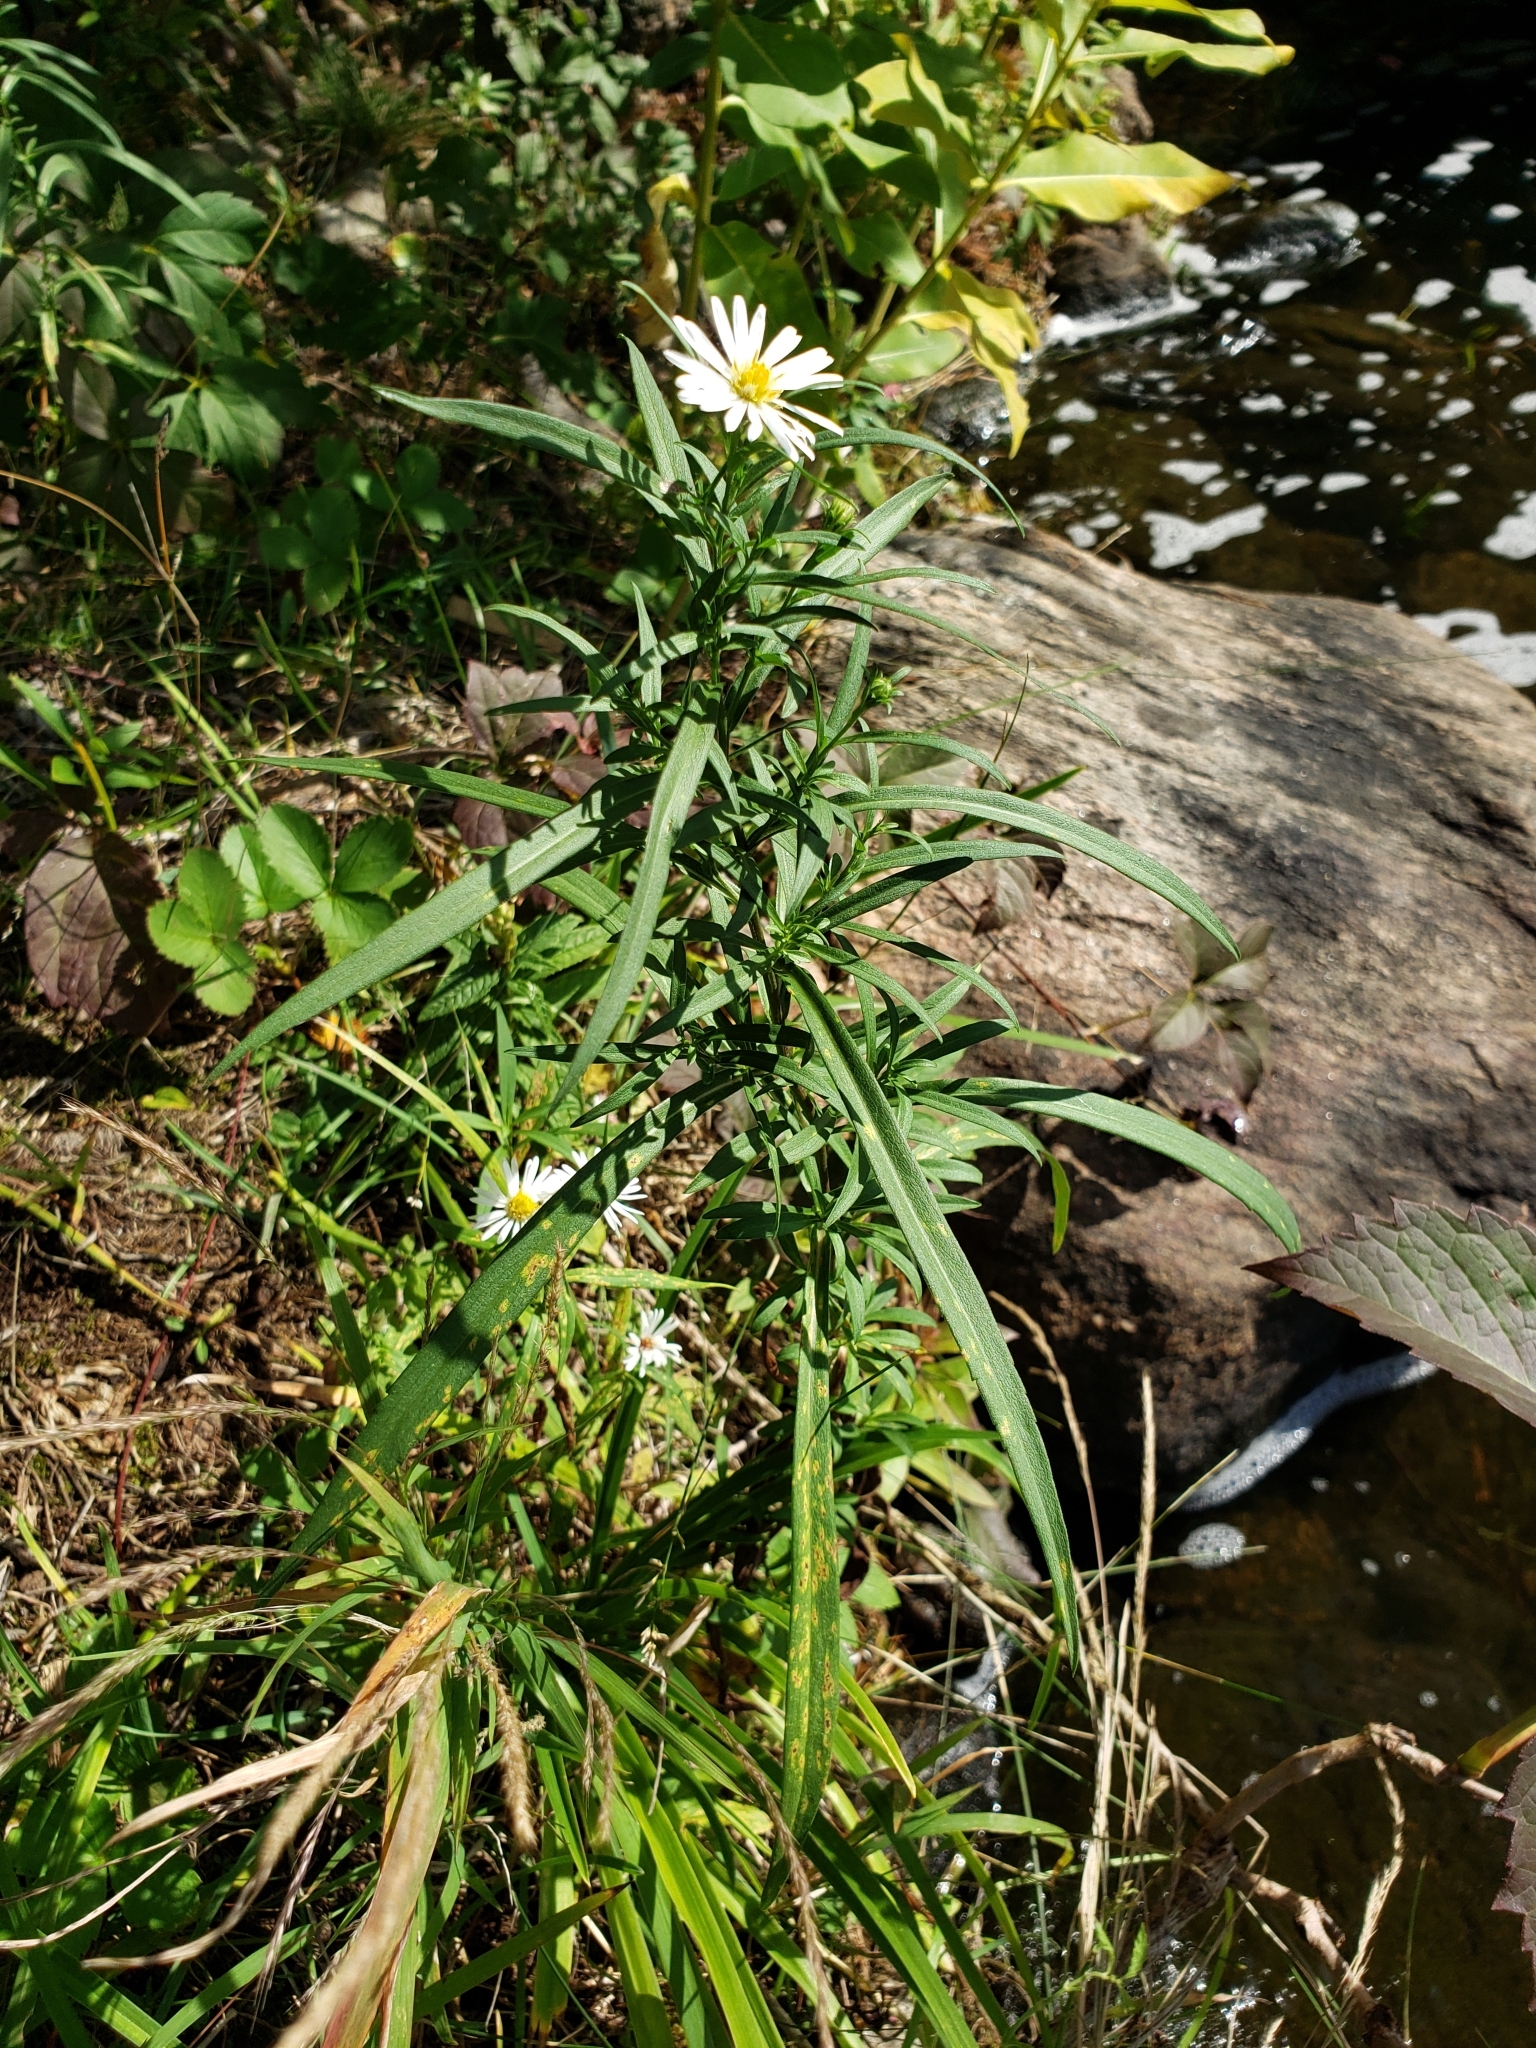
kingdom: Plantae
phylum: Tracheophyta
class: Magnoliopsida
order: Asterales
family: Asteraceae
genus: Symphyotrichum
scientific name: Symphyotrichum lanceolatum
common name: Panicled aster
